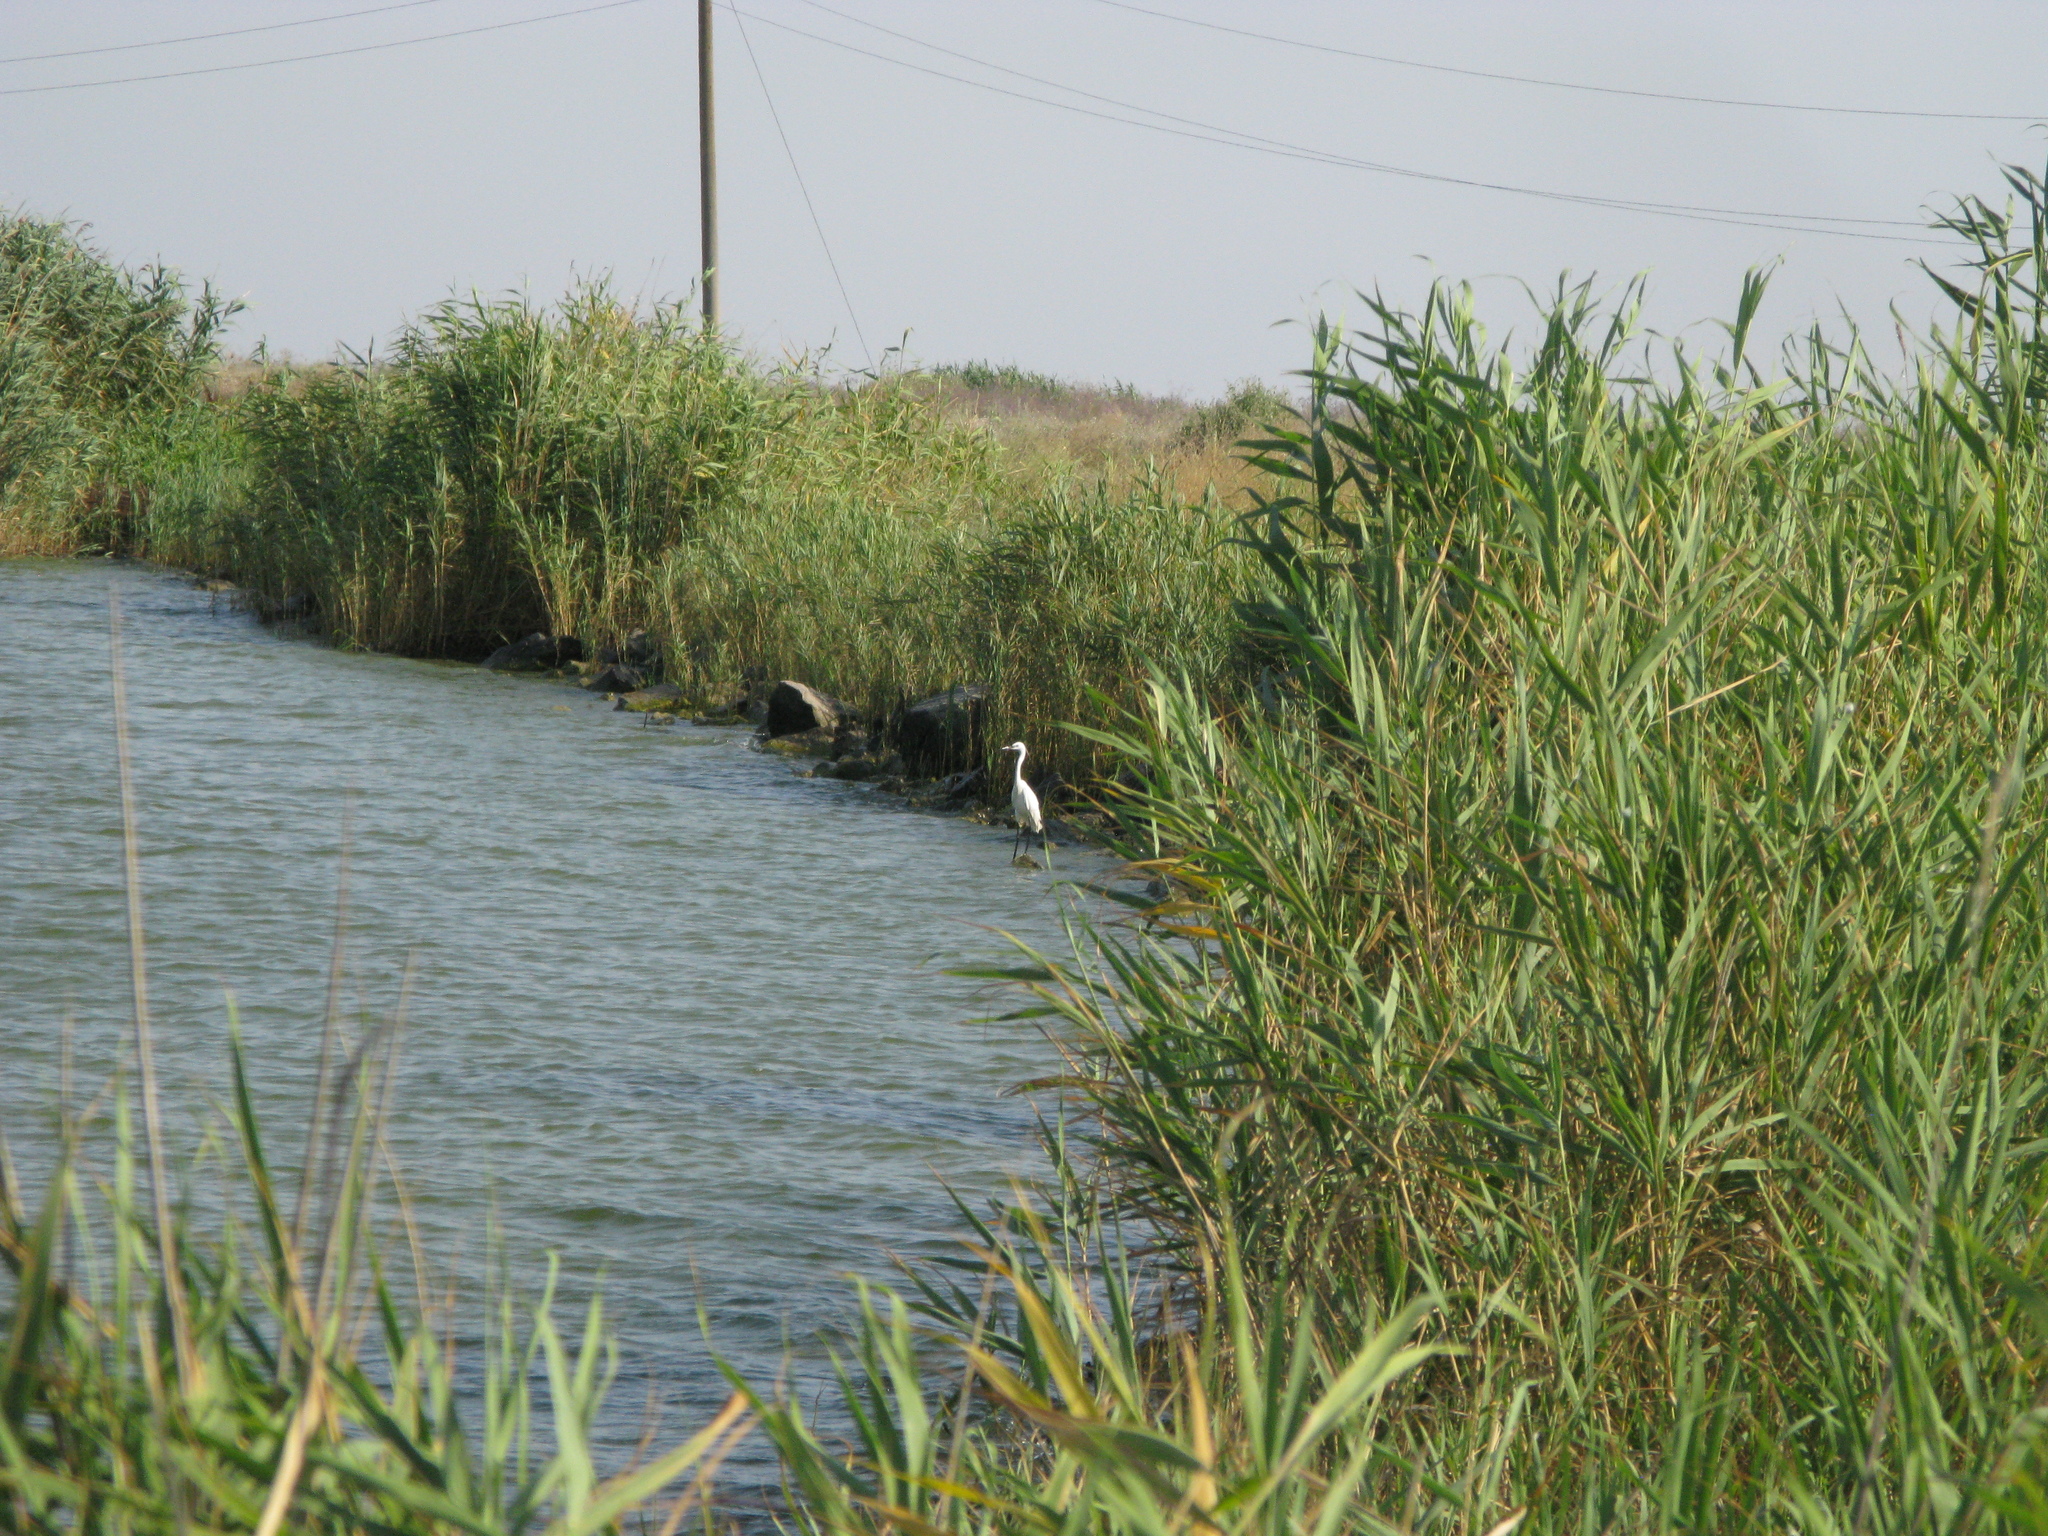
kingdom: Animalia
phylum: Chordata
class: Aves
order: Pelecaniformes
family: Ardeidae
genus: Egretta
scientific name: Egretta garzetta
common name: Little egret
